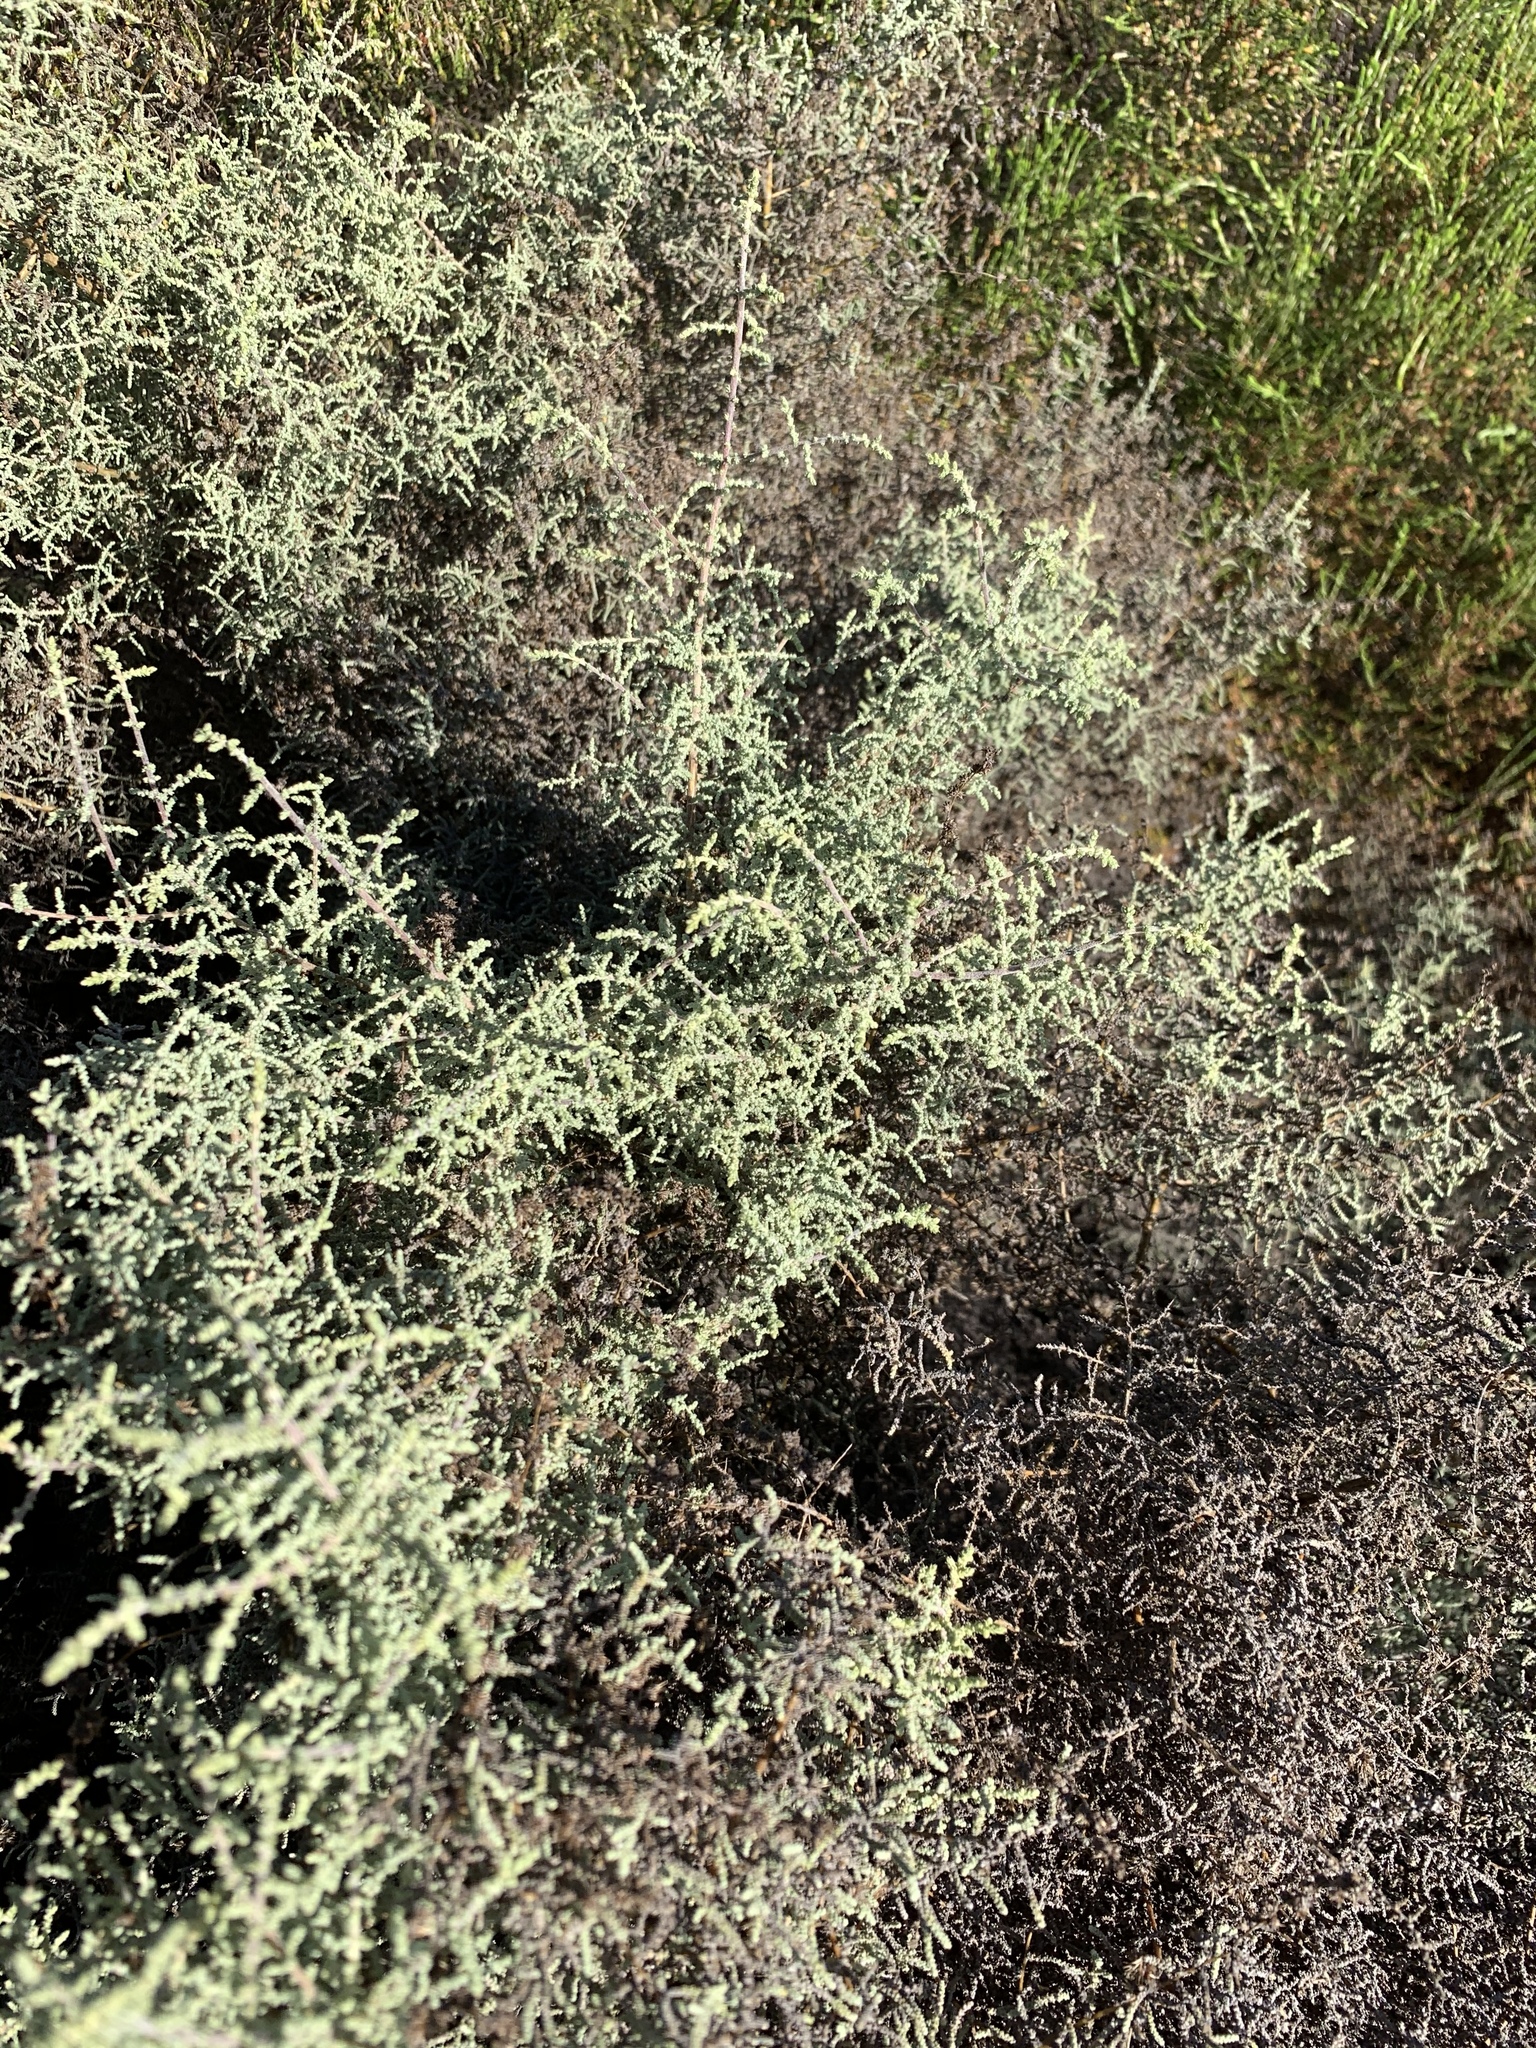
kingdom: Plantae
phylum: Tracheophyta
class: Magnoliopsida
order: Asterales
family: Asteraceae
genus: Seriphium
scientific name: Seriphium plumosum
